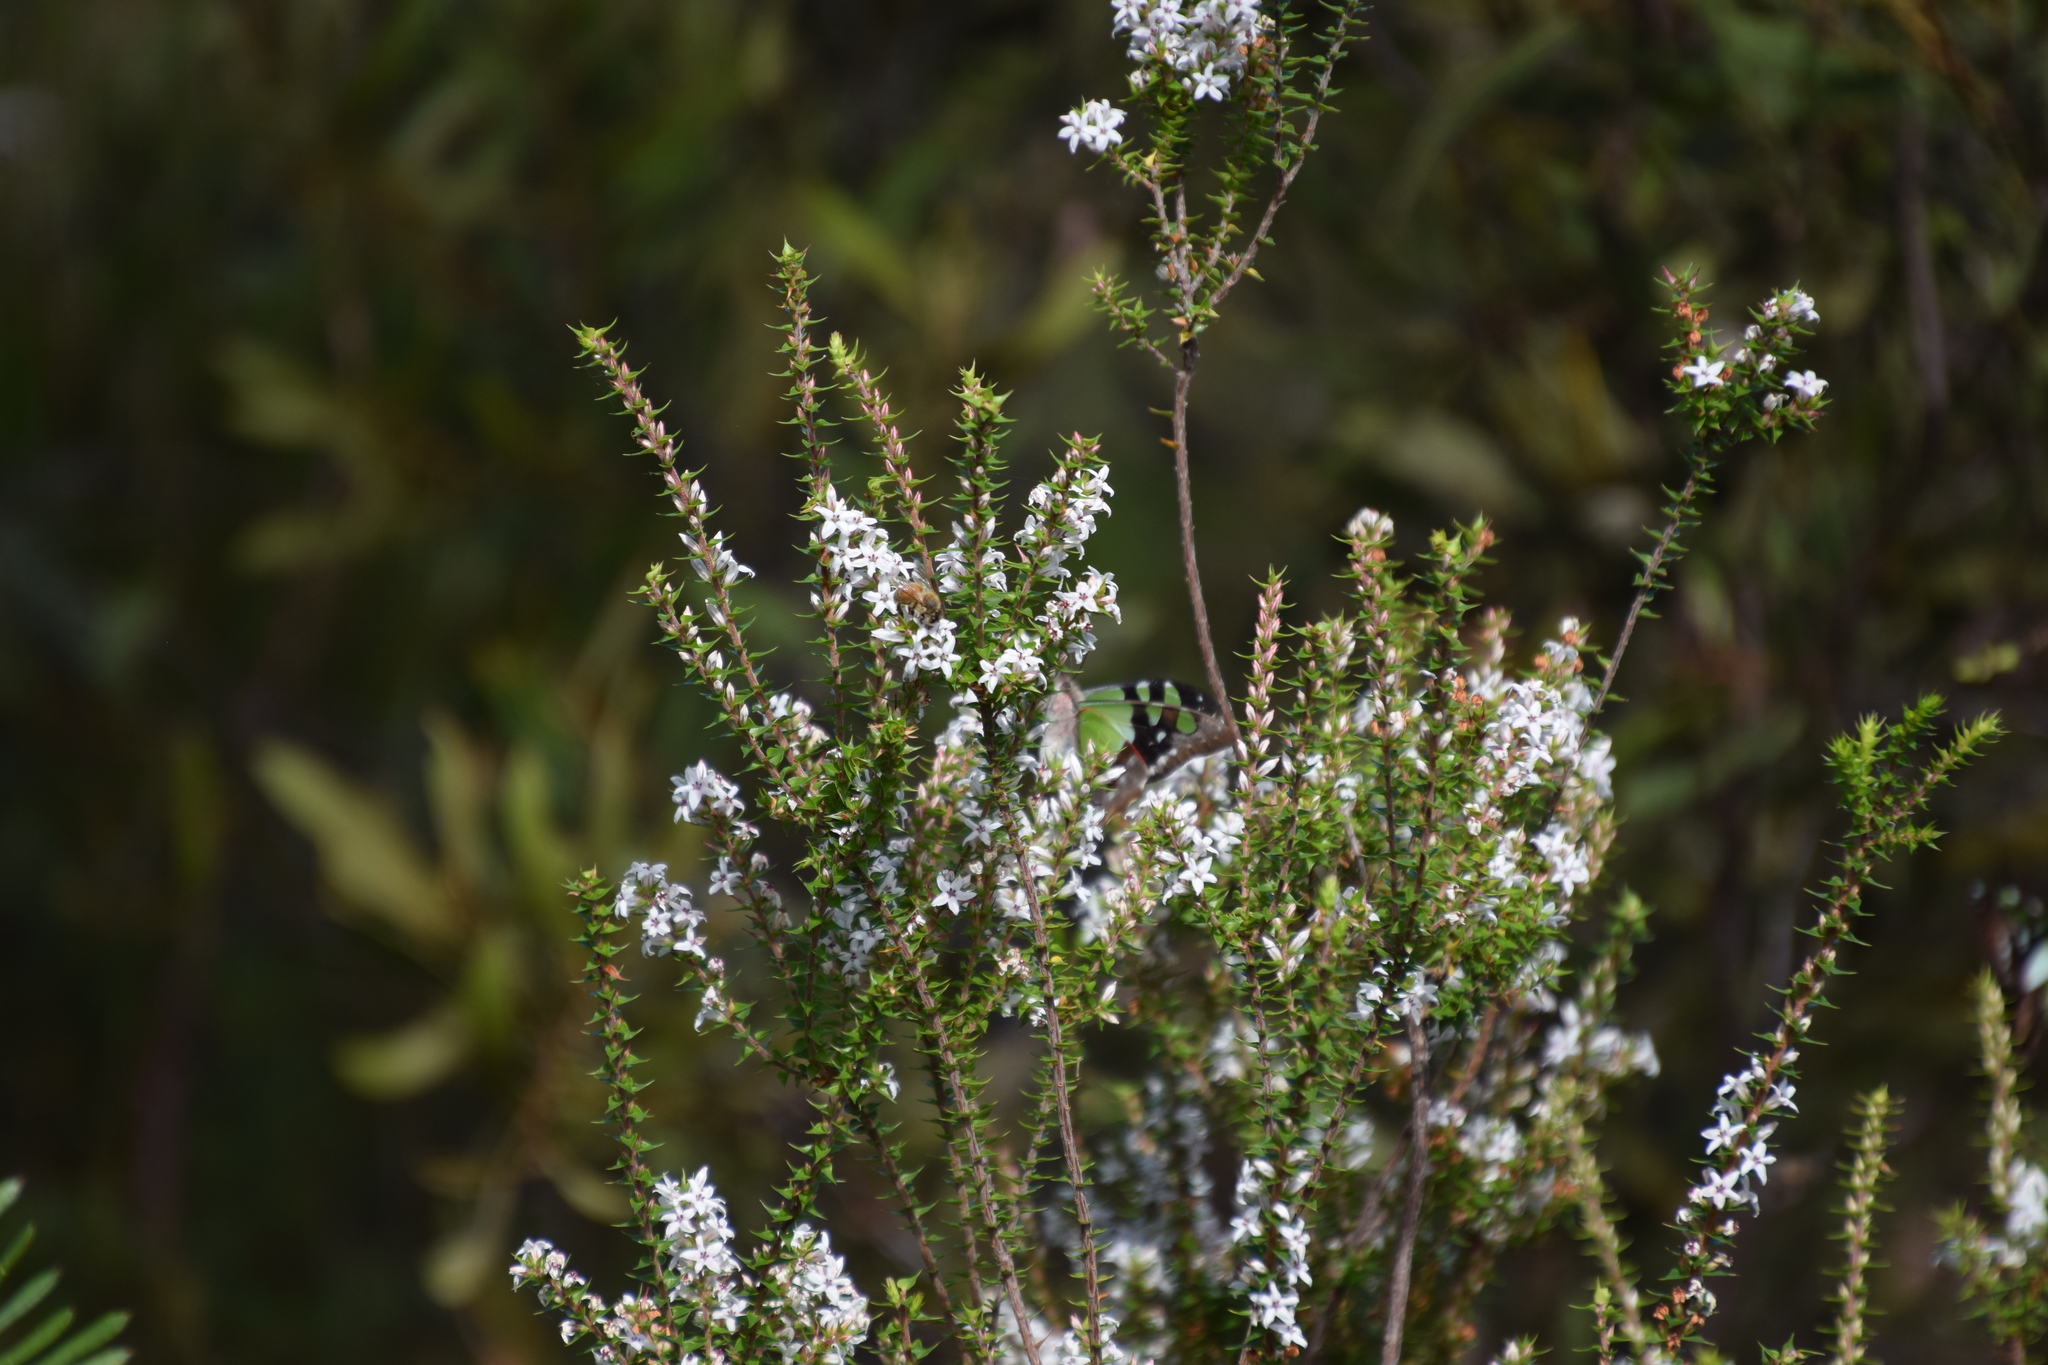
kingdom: Animalia
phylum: Arthropoda
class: Insecta
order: Lepidoptera
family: Papilionidae
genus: Graphium
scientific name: Graphium macleayanus
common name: Macleay's swallowtail
